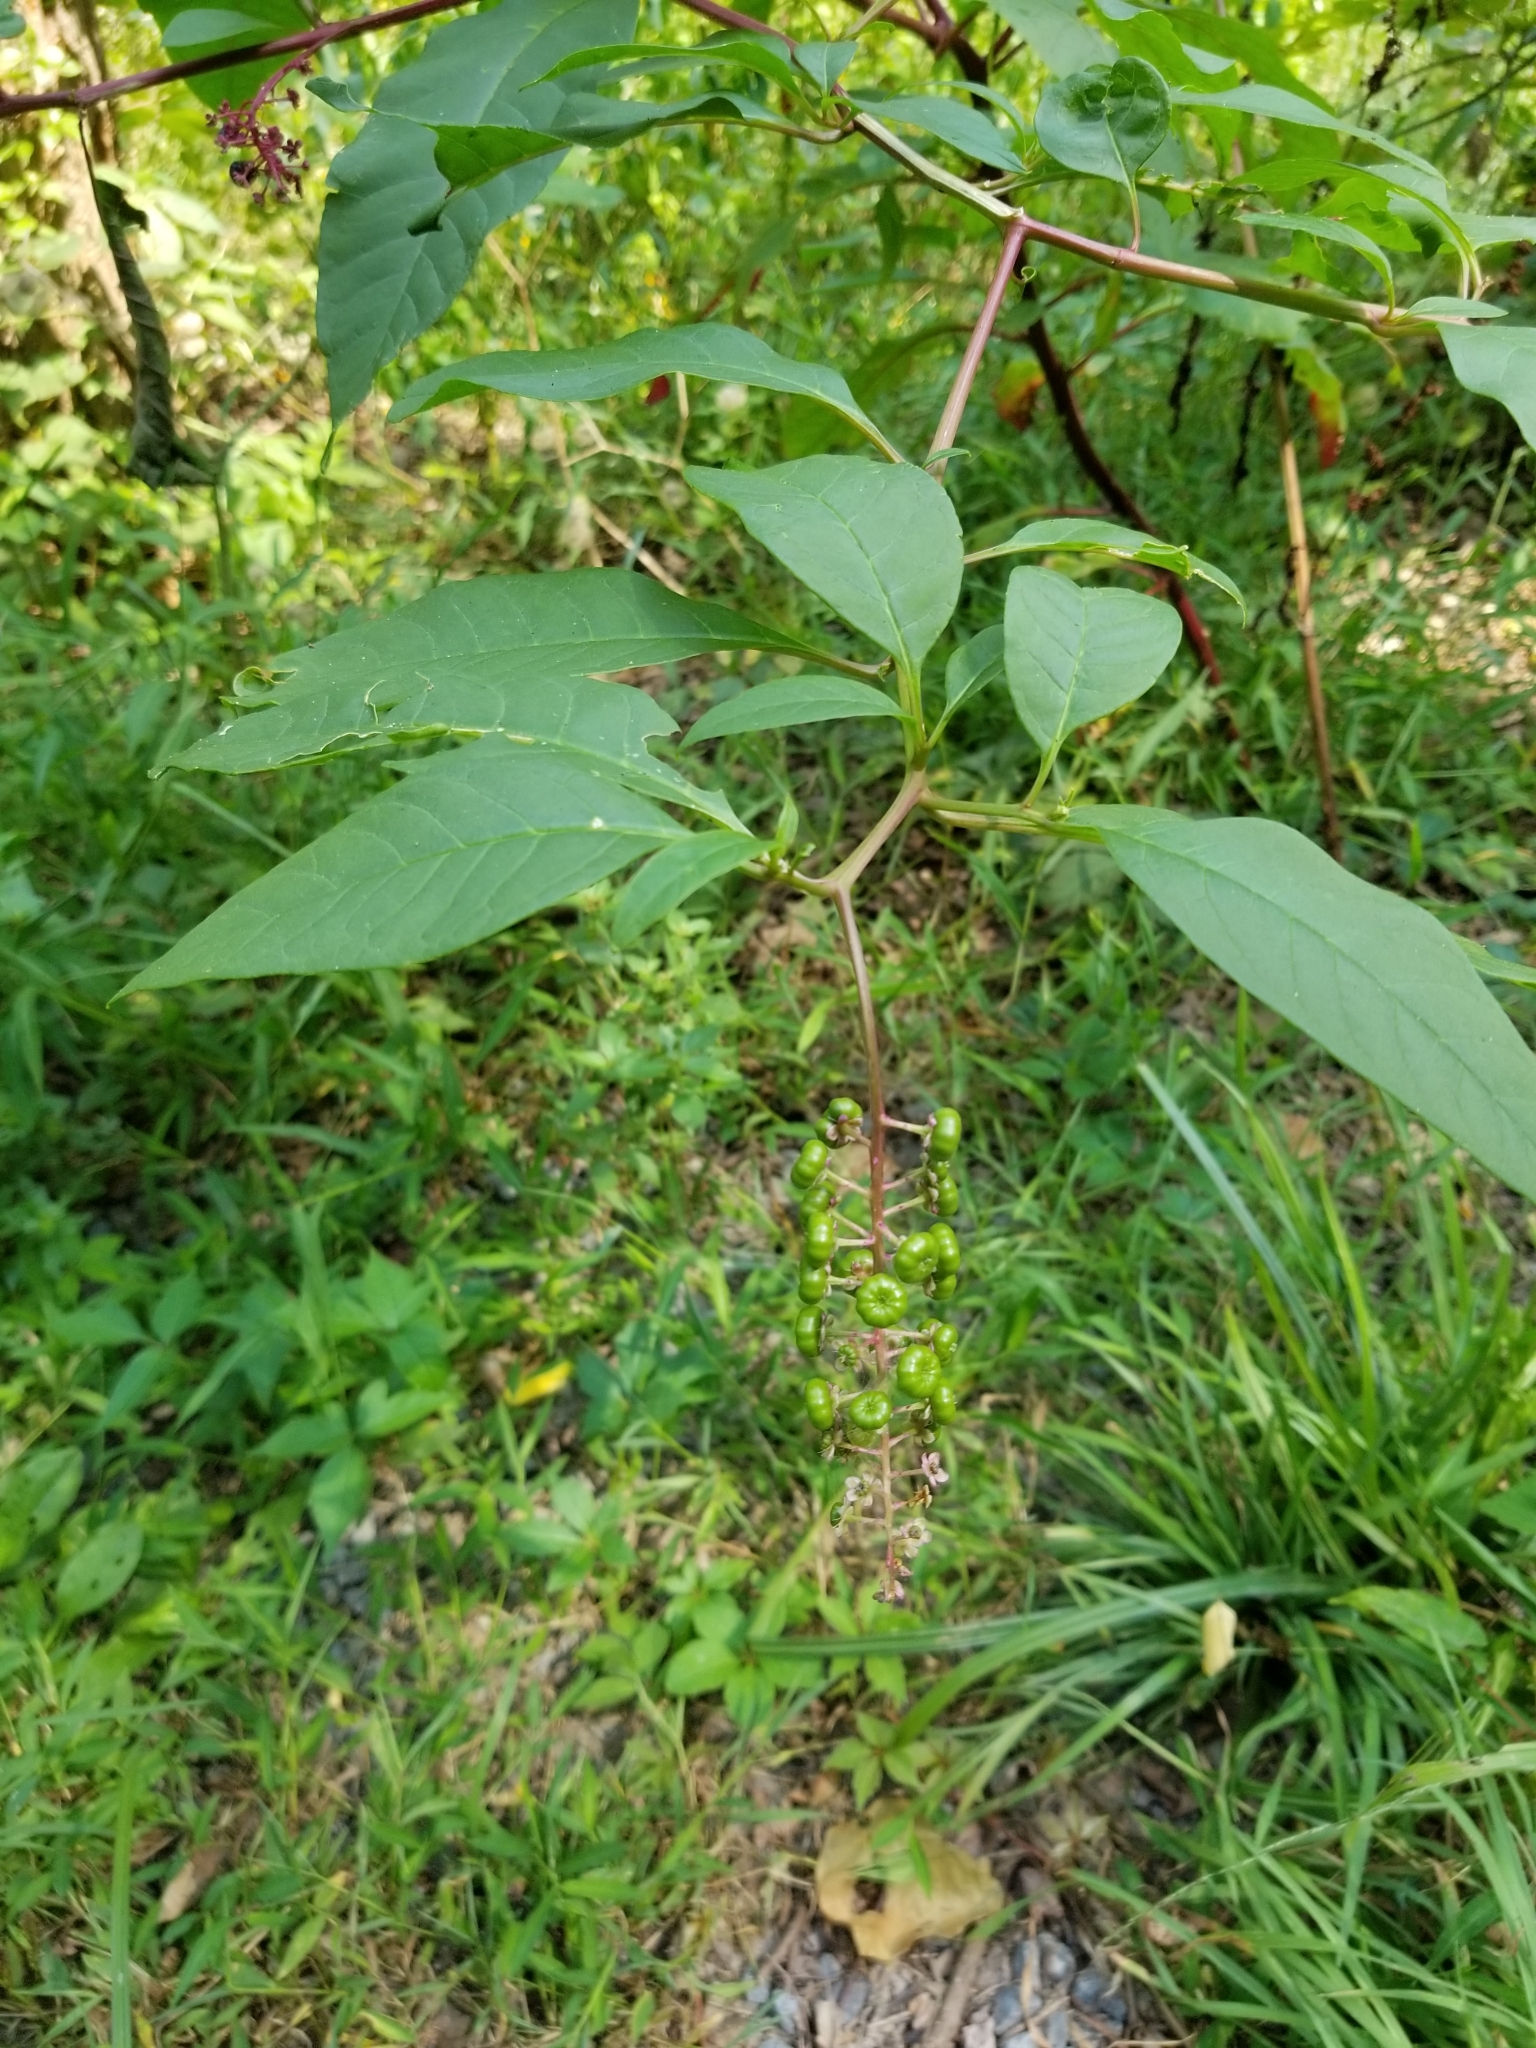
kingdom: Plantae
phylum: Tracheophyta
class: Magnoliopsida
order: Caryophyllales
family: Phytolaccaceae
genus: Phytolacca
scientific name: Phytolacca americana
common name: American pokeweed
